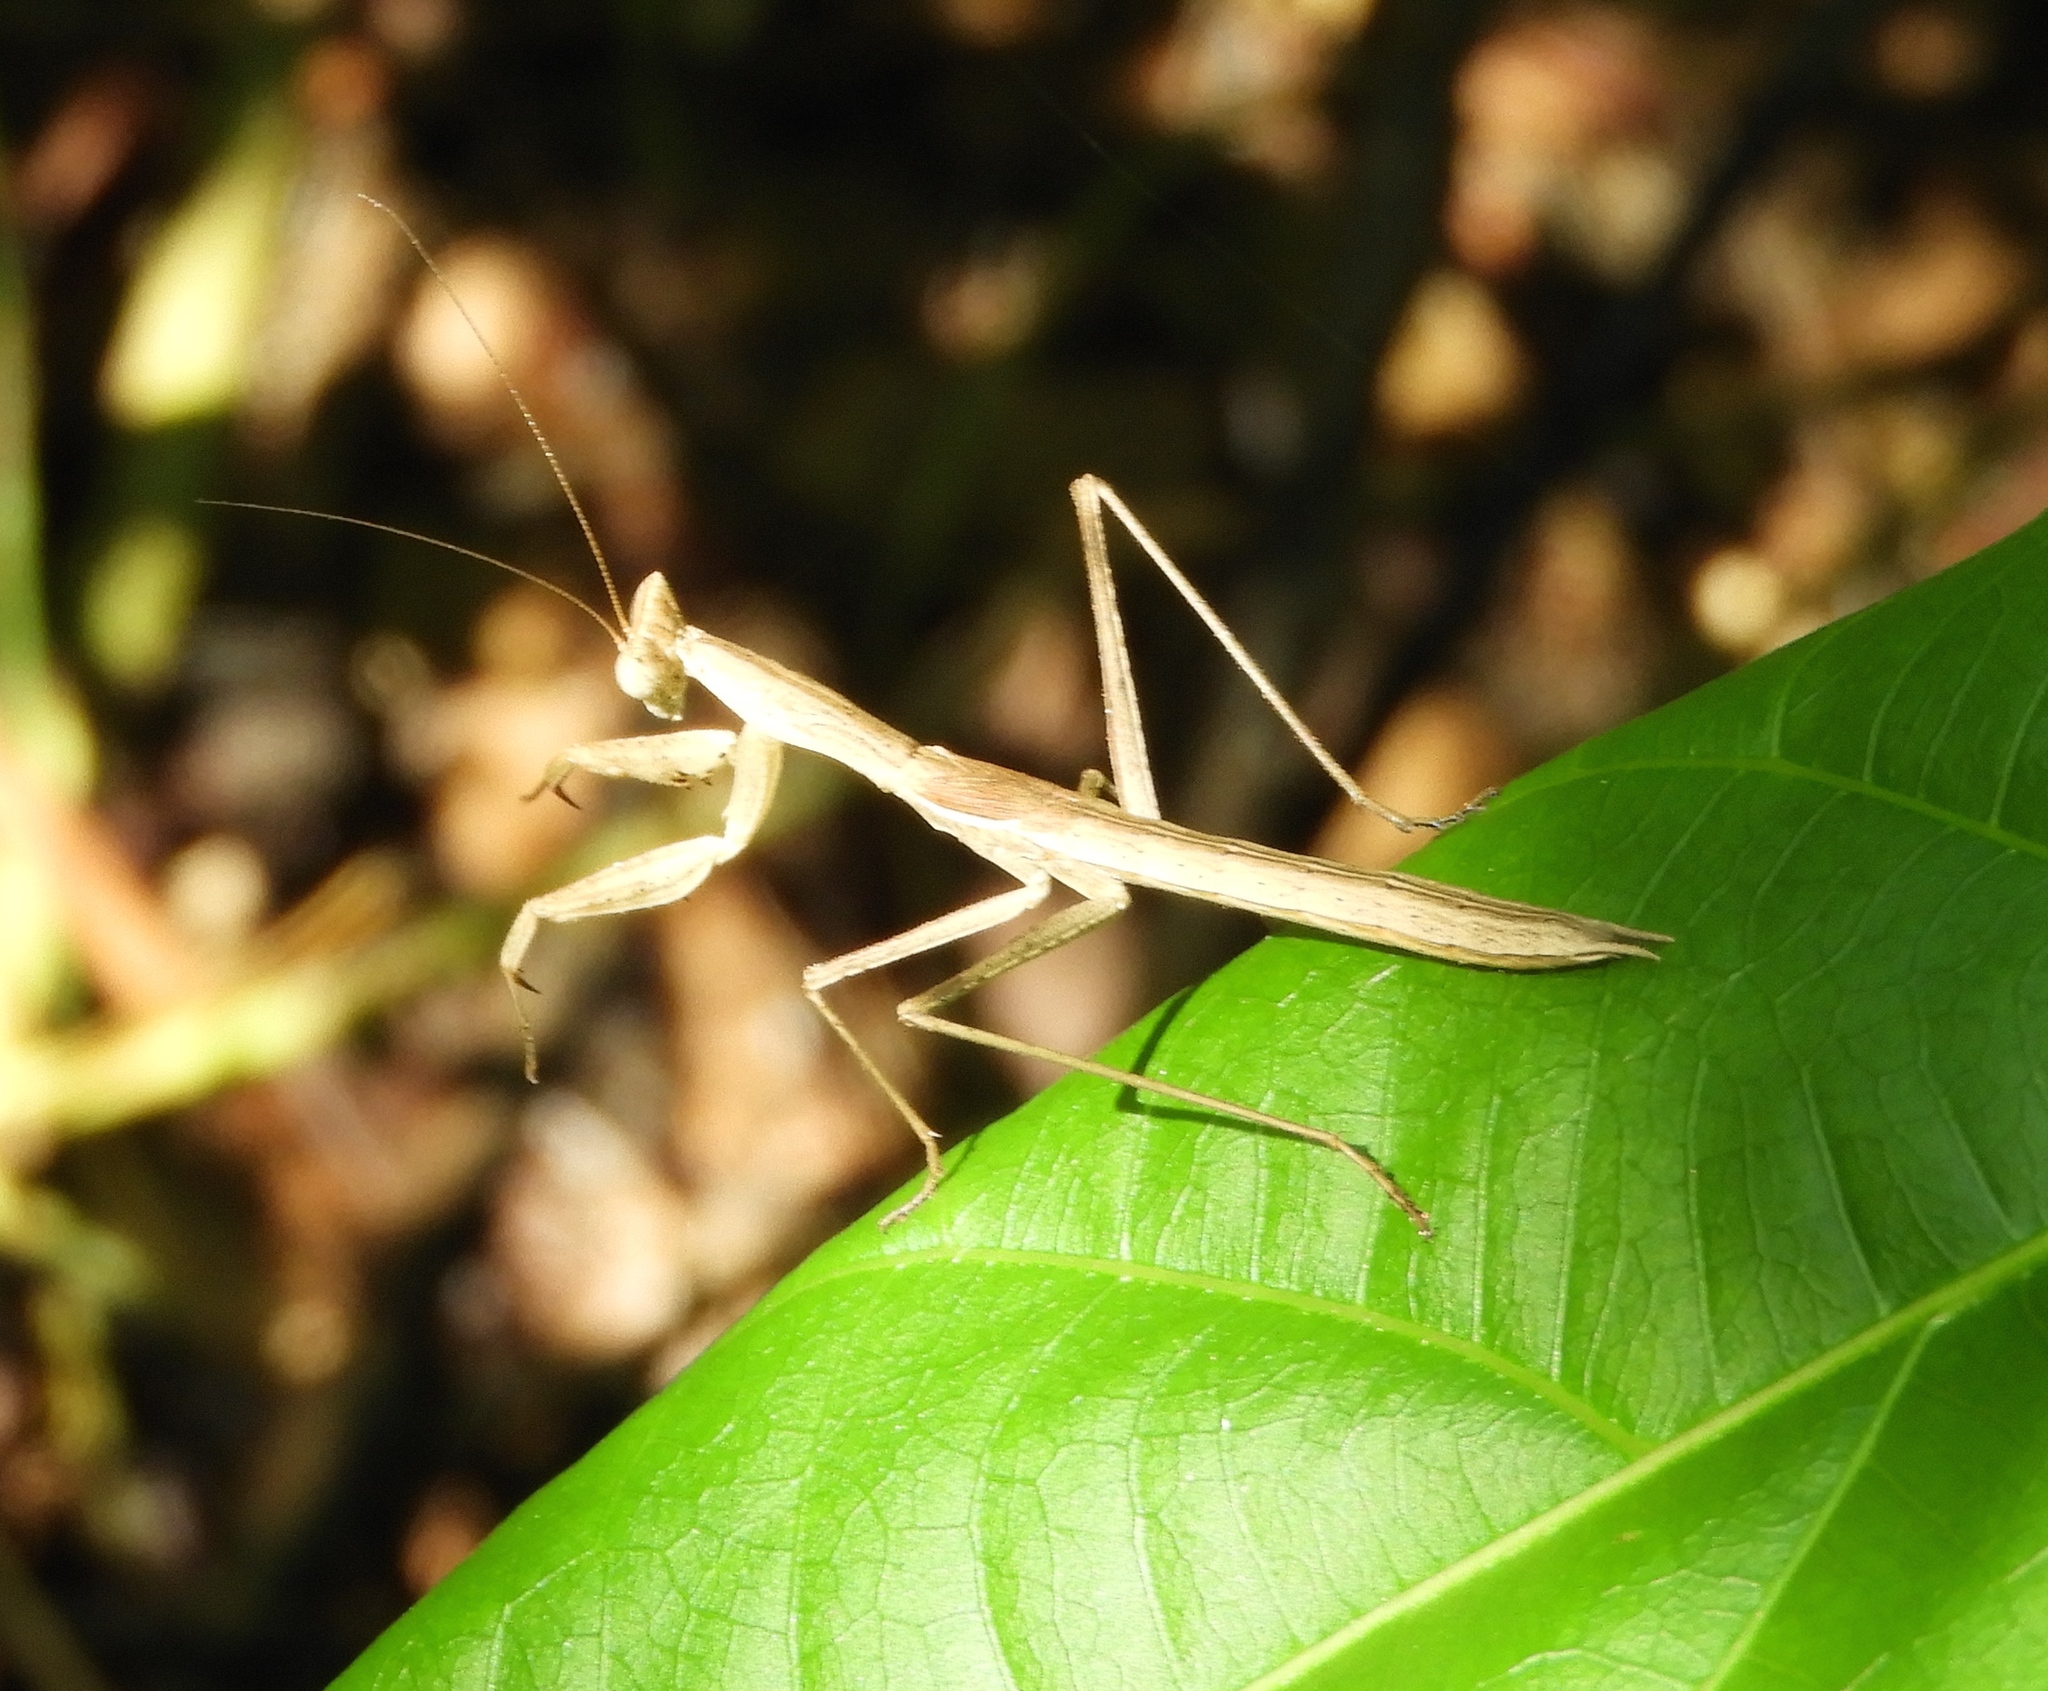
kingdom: Animalia
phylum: Arthropoda
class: Insecta
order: Mantodea
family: Amelidae
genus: Yersinia
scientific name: Yersinia mexicana
